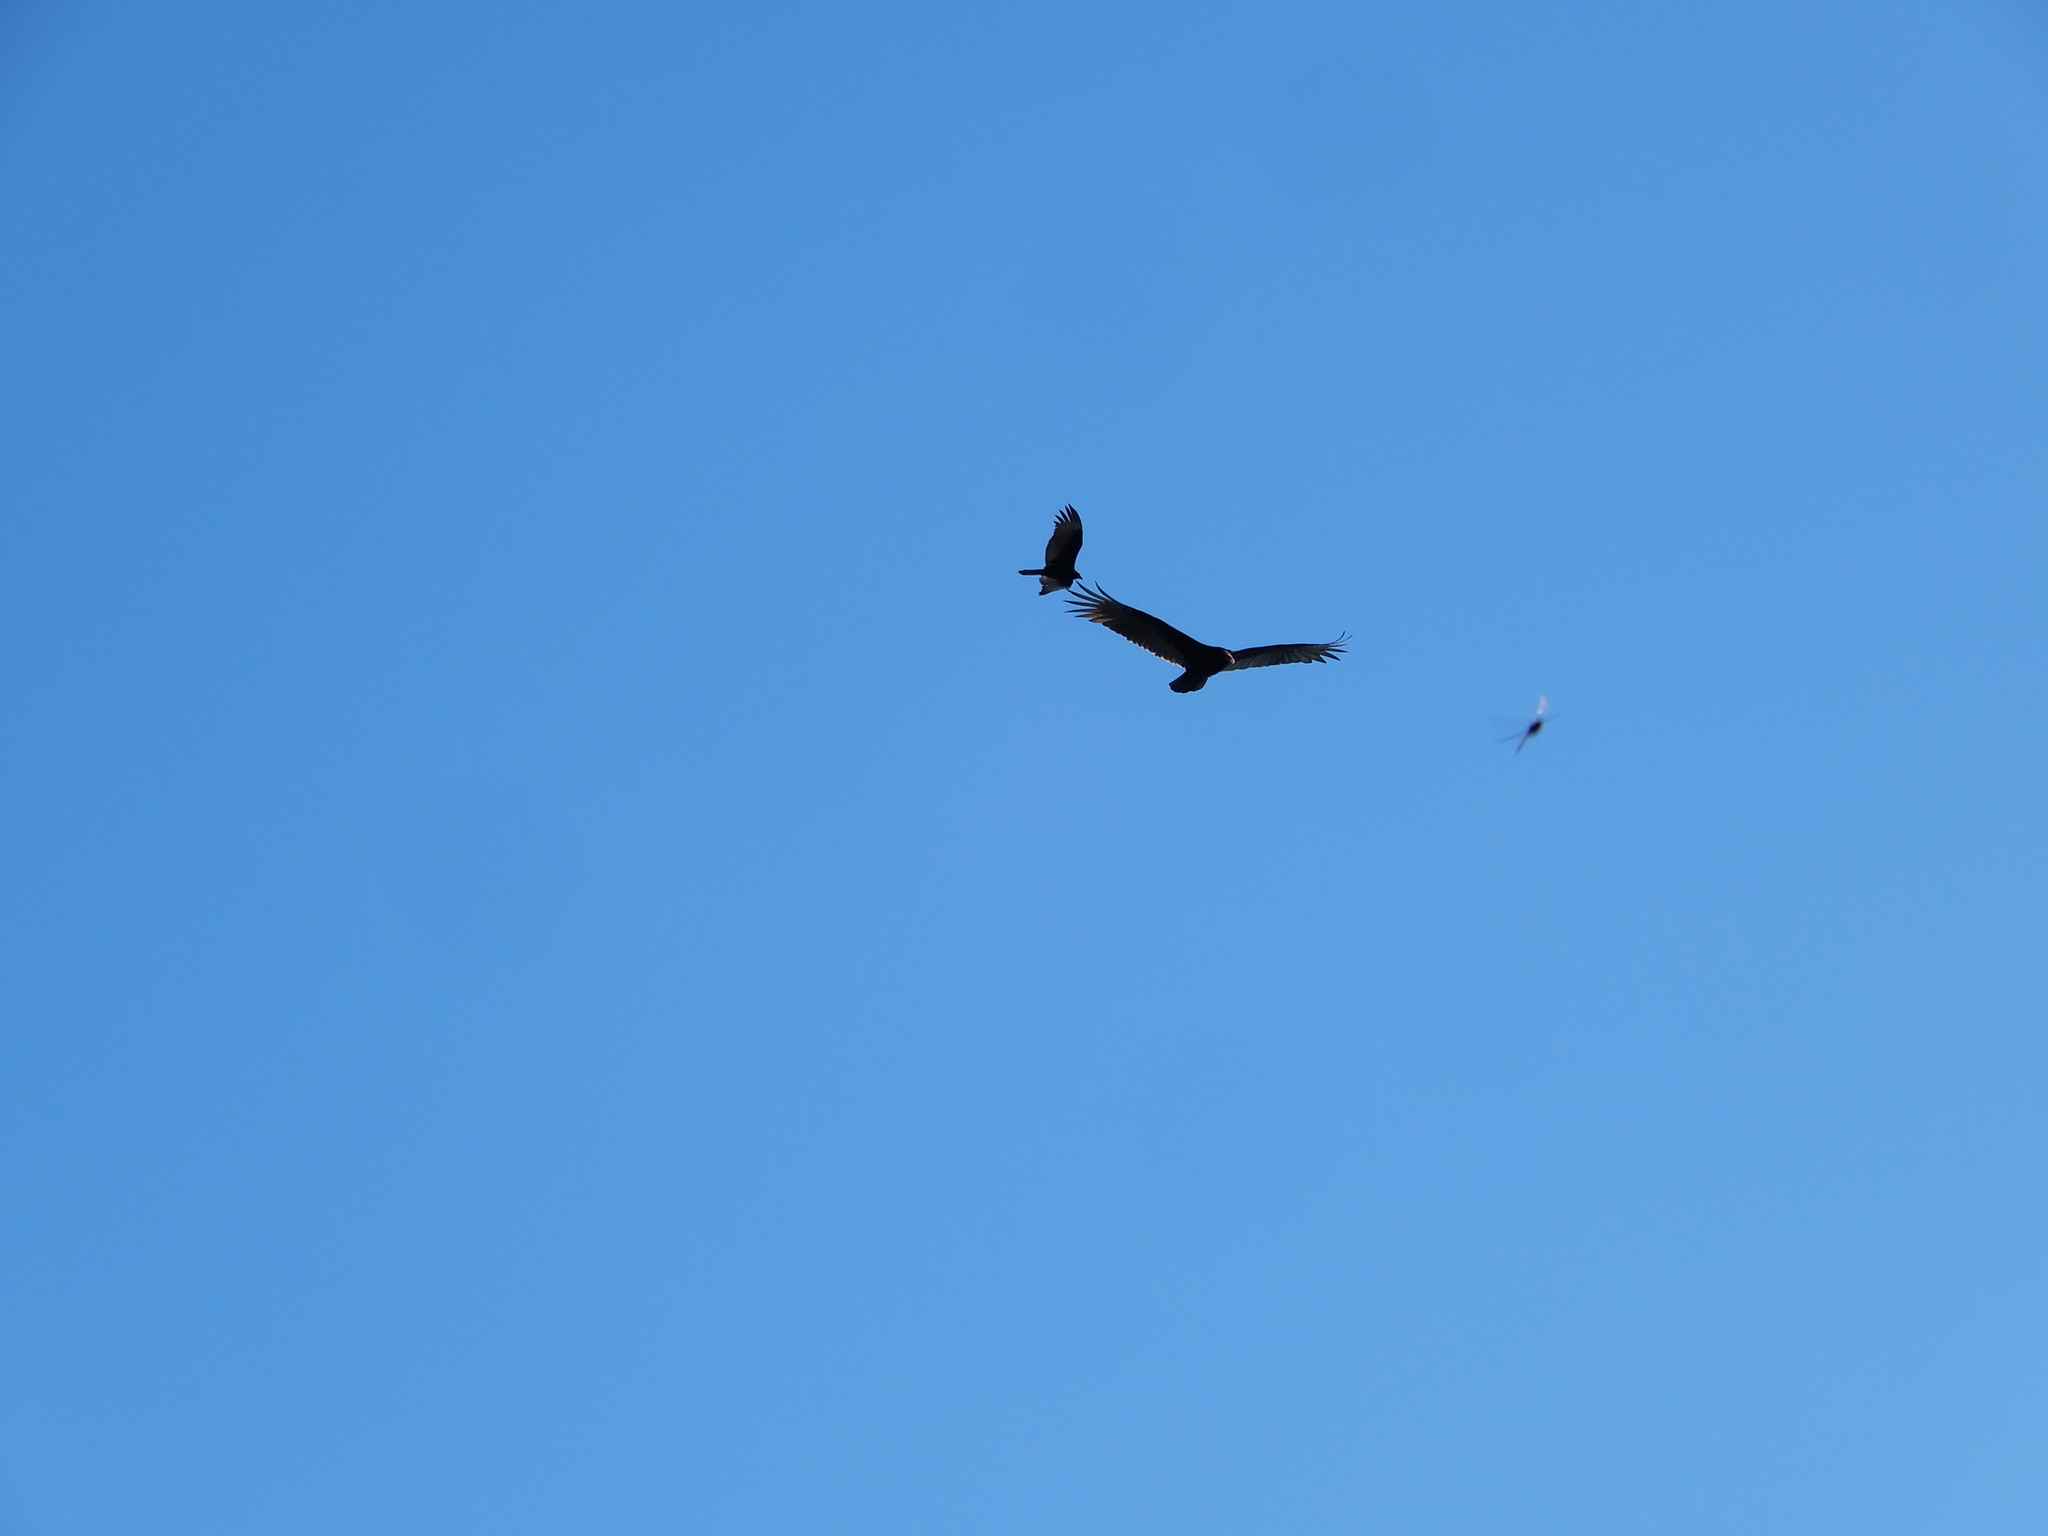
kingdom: Animalia
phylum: Chordata
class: Aves
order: Accipitriformes
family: Cathartidae
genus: Cathartes
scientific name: Cathartes aura
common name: Turkey vulture
